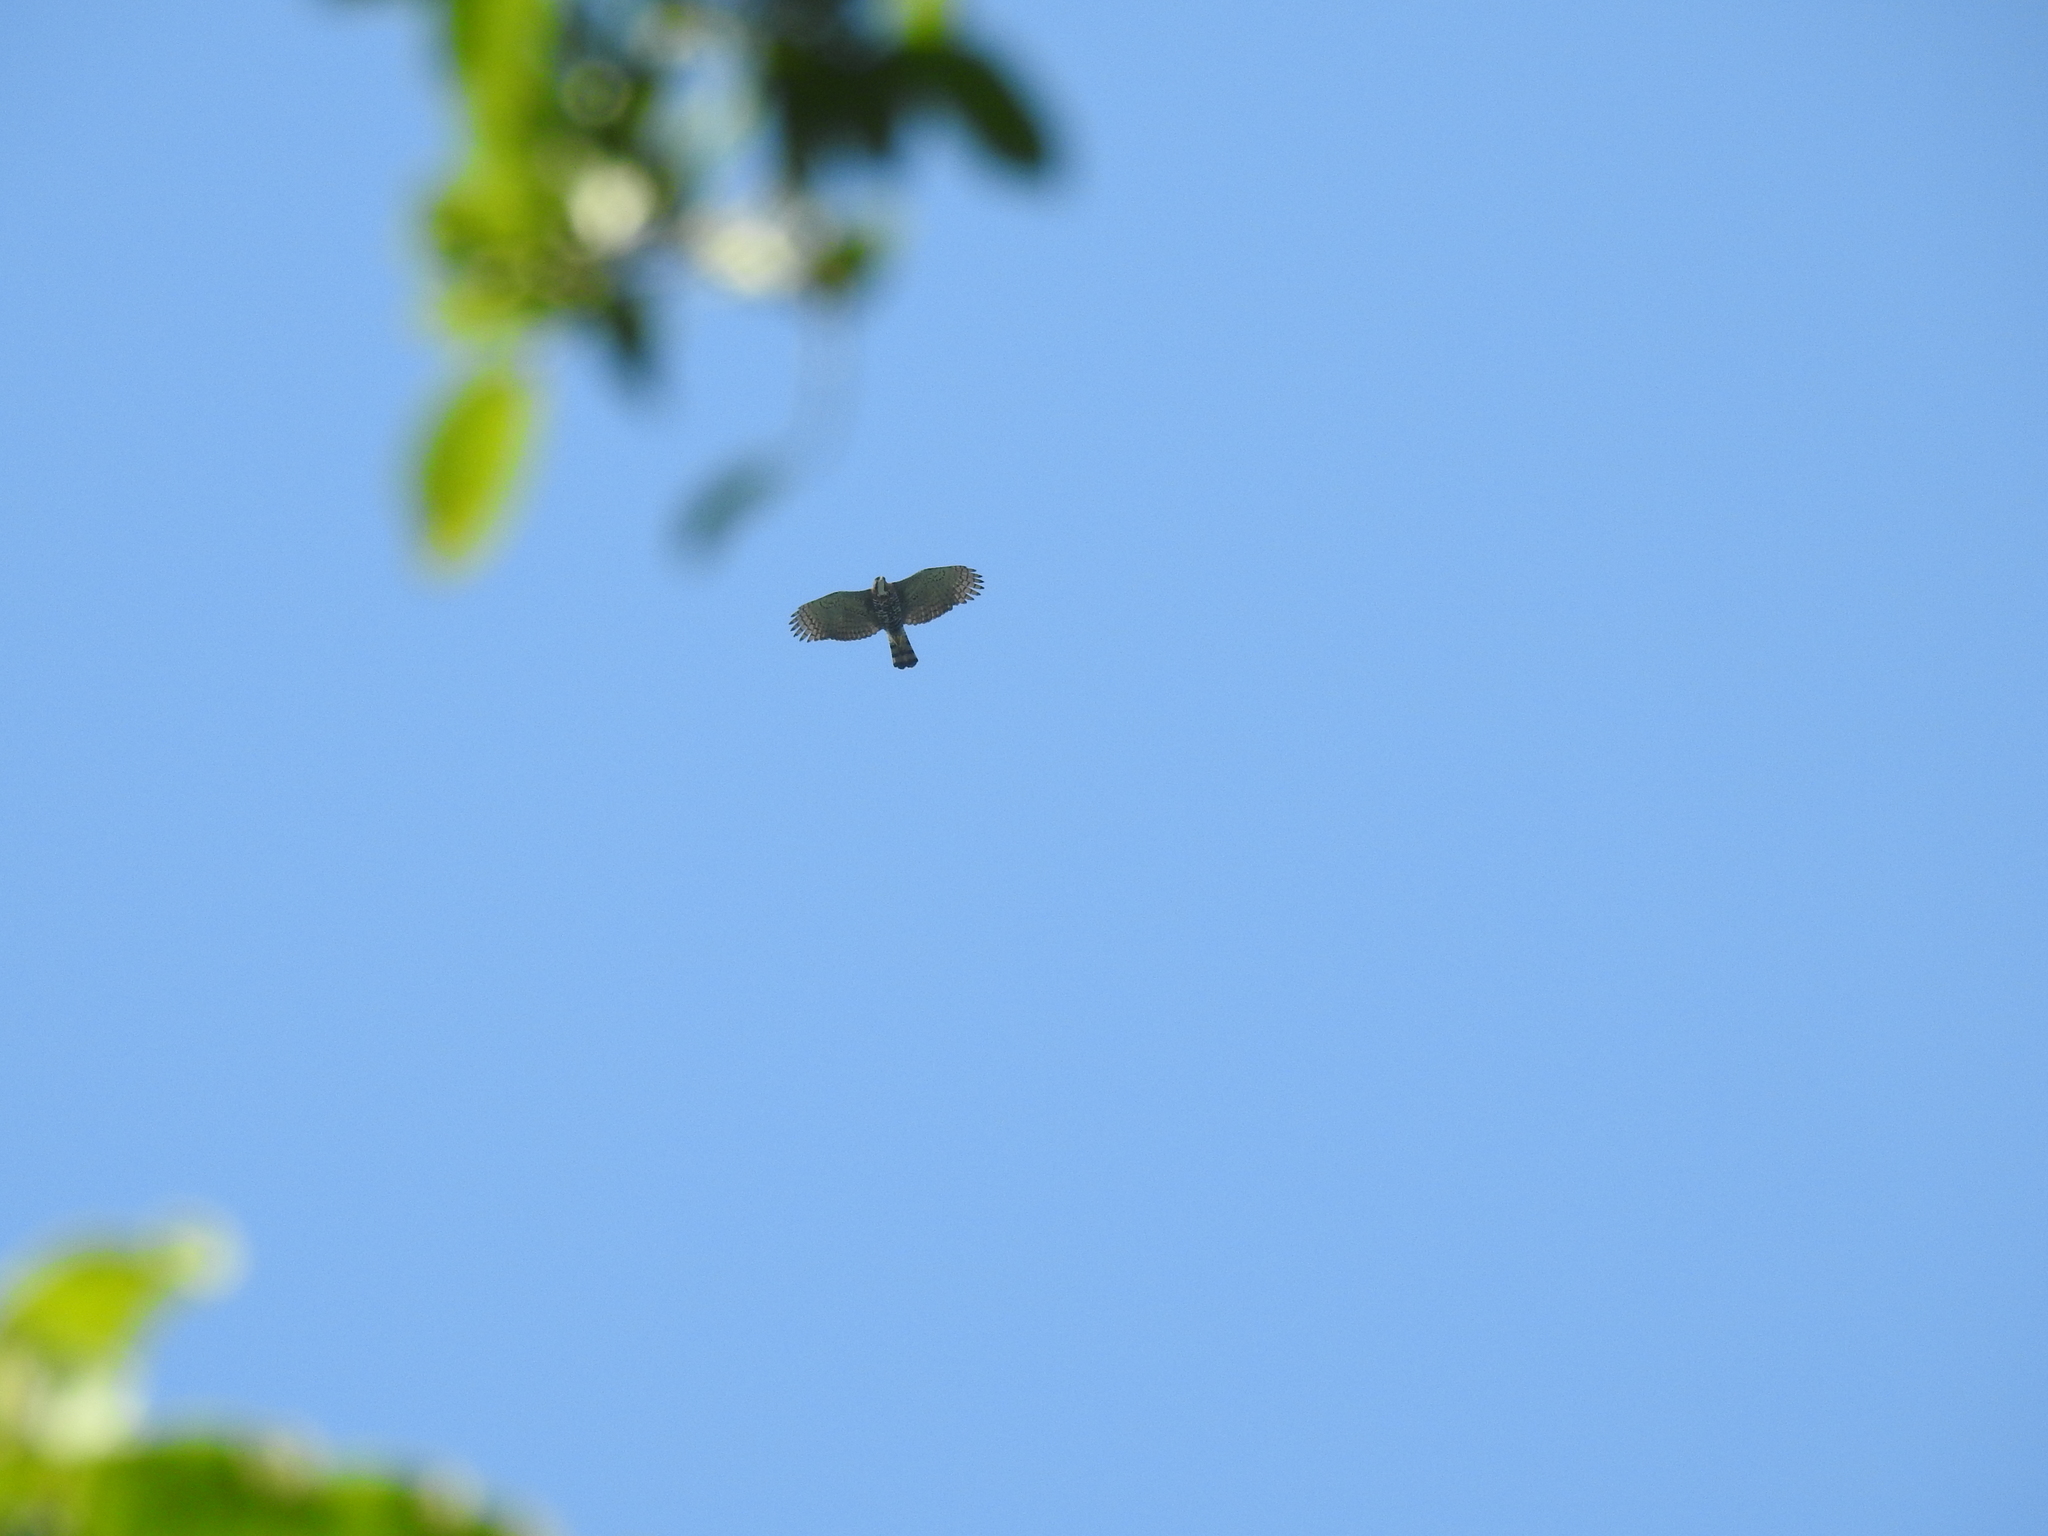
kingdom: Animalia
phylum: Chordata
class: Aves
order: Accipitriformes
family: Accipitridae
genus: Spizaetus
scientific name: Spizaetus ornatus
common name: Ornate hawk-eagle
